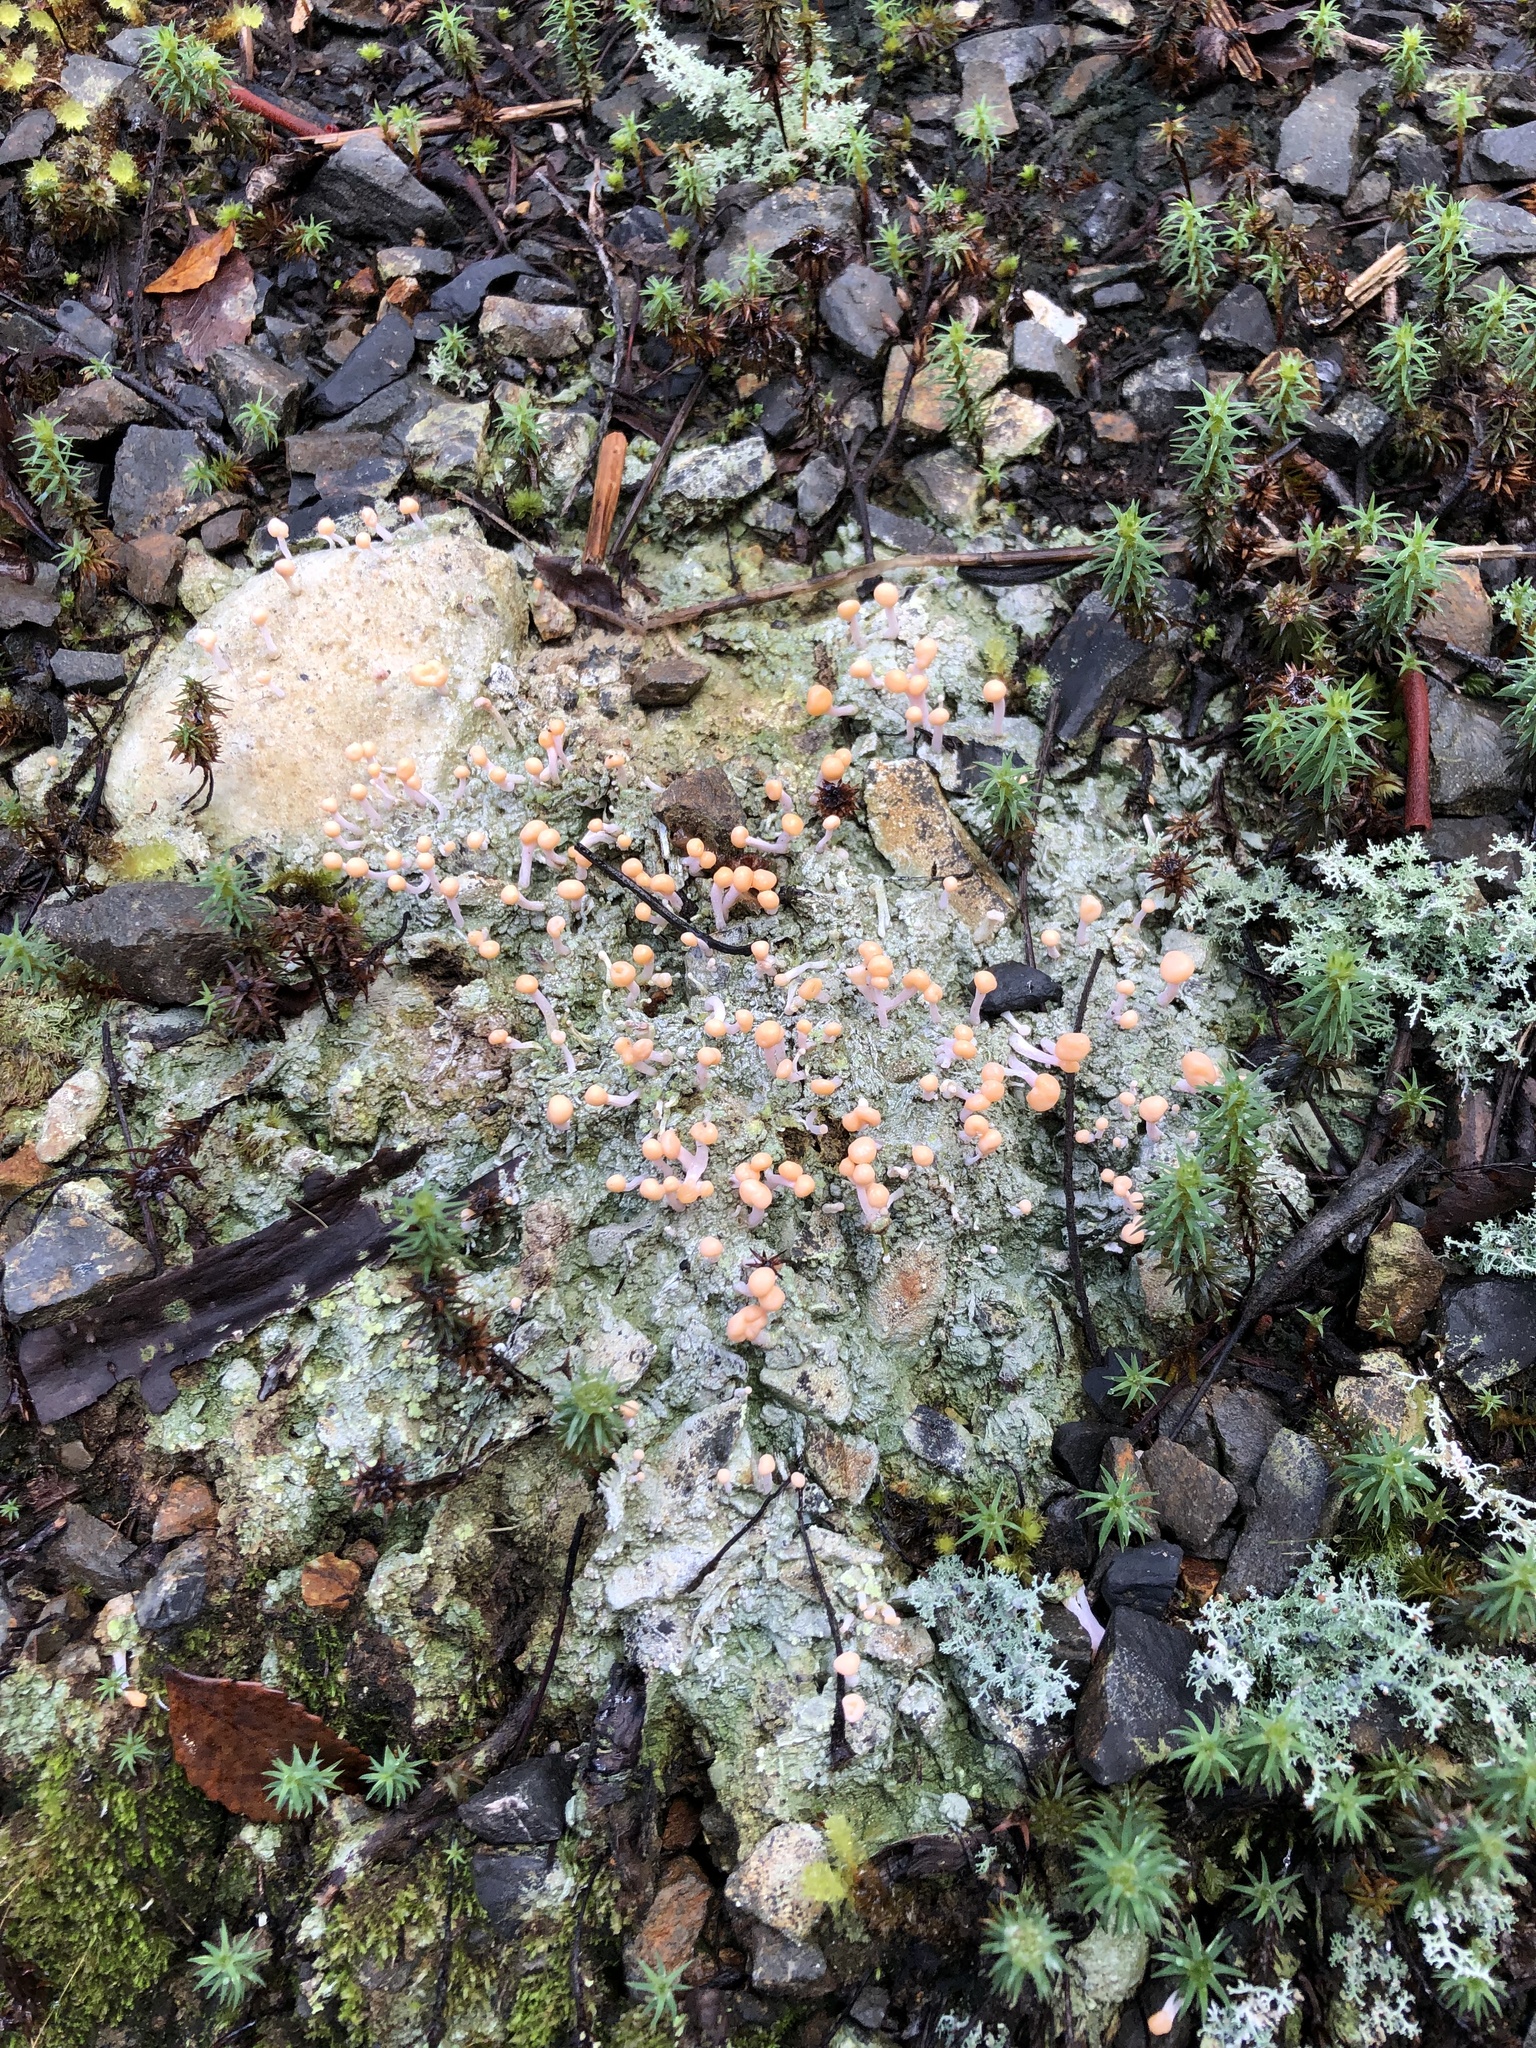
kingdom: Fungi
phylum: Ascomycota
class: Lecanoromycetes
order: Pertusariales
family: Icmadophilaceae
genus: Dibaeis
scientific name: Dibaeis arcuata
